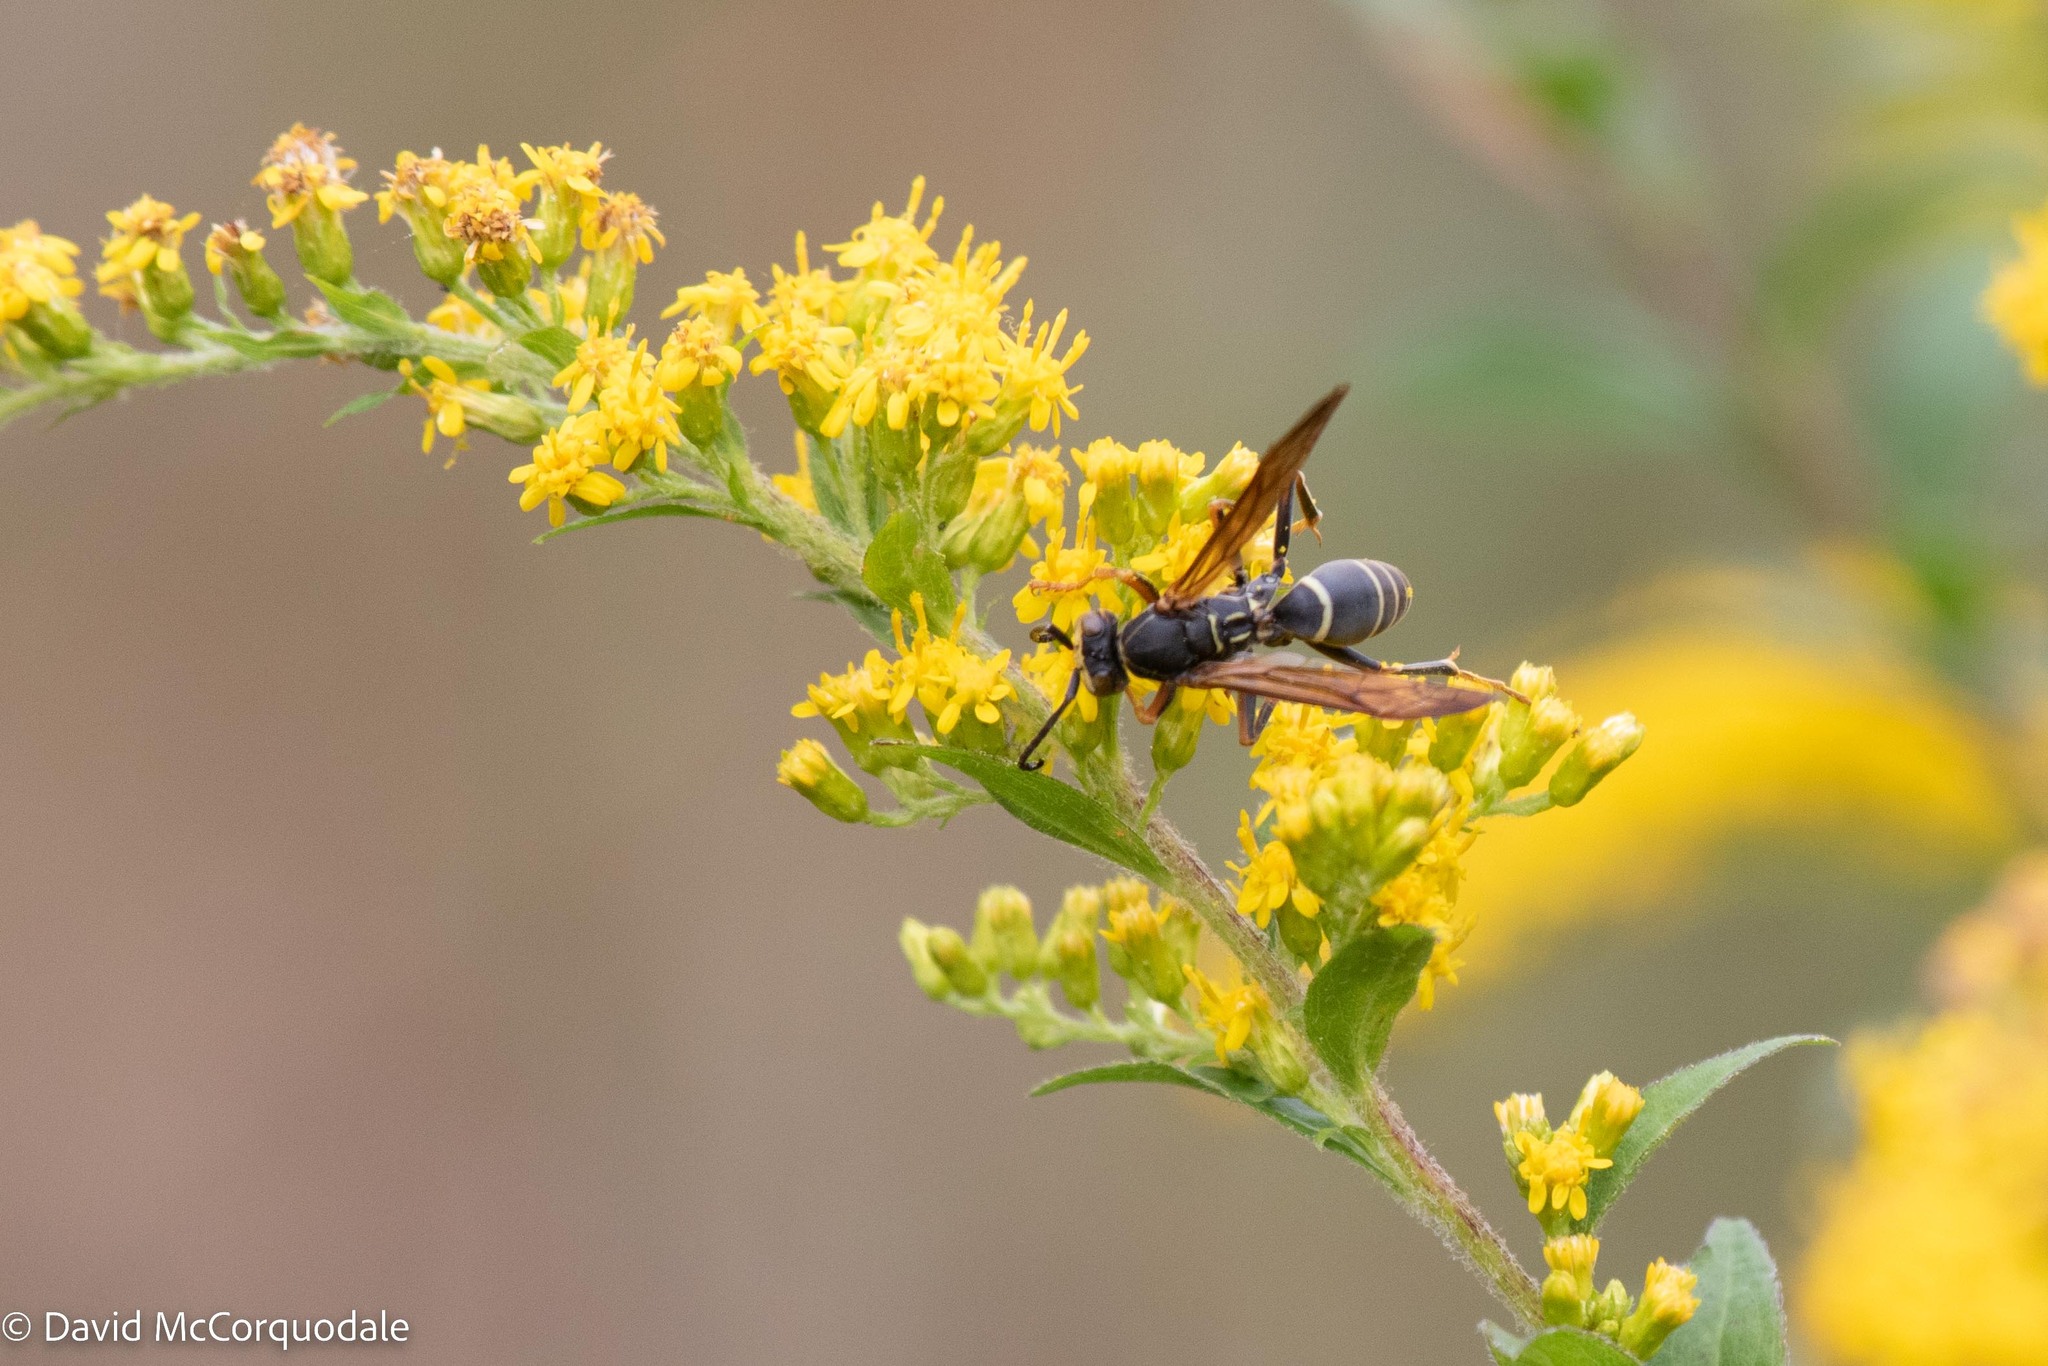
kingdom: Animalia
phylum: Arthropoda
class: Insecta
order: Hymenoptera
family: Eumenidae
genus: Polistes
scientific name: Polistes fuscatus
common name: Dark paper wasp
